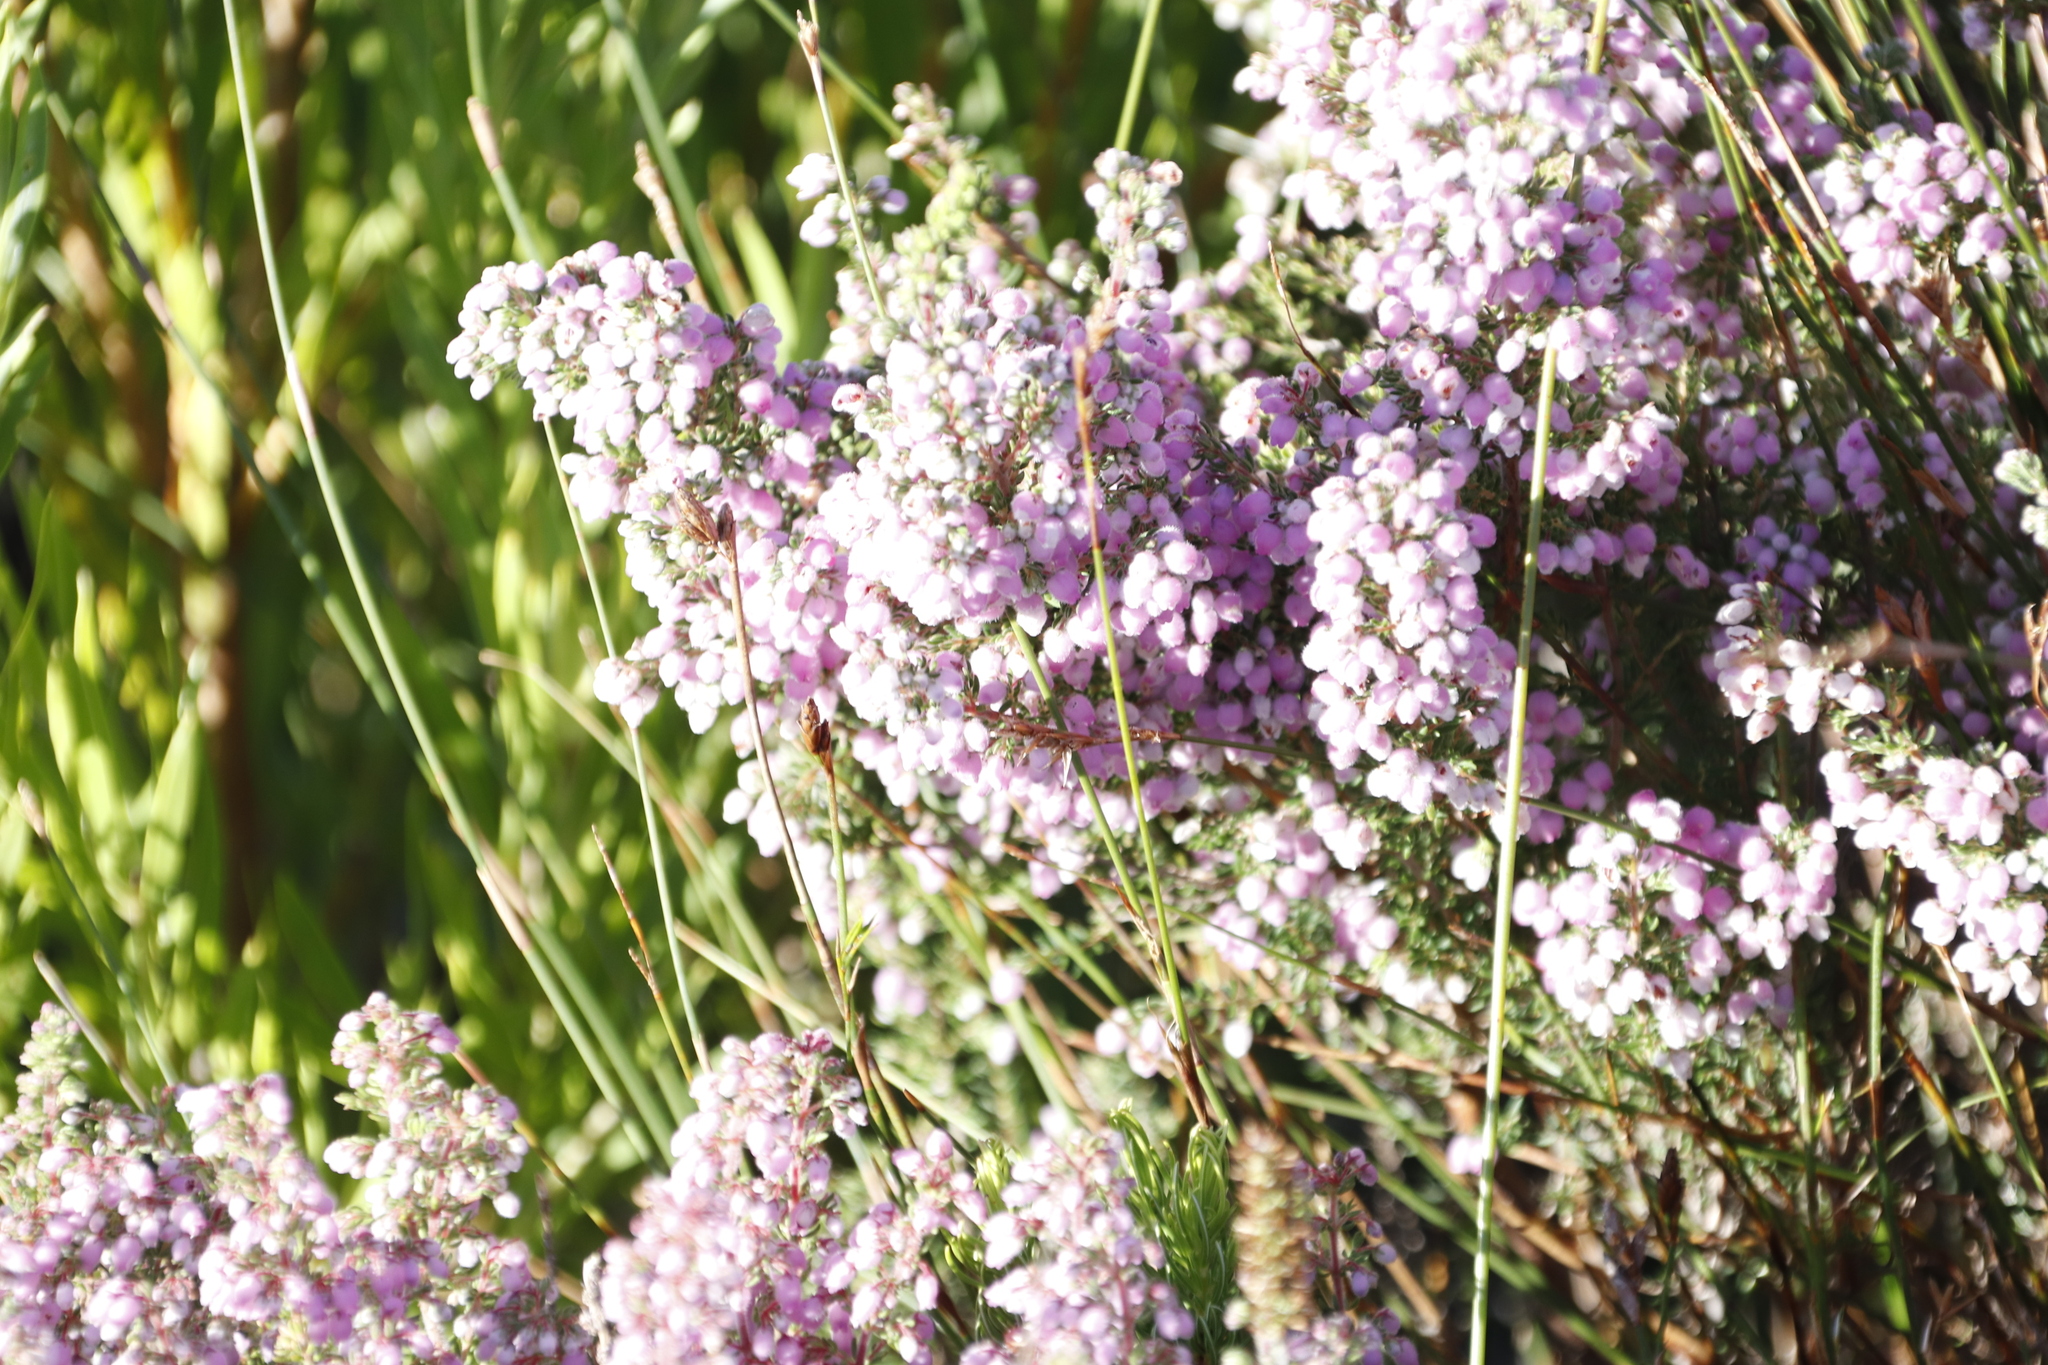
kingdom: Plantae
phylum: Tracheophyta
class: Magnoliopsida
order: Ericales
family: Ericaceae
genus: Erica
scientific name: Erica hirtiflora
